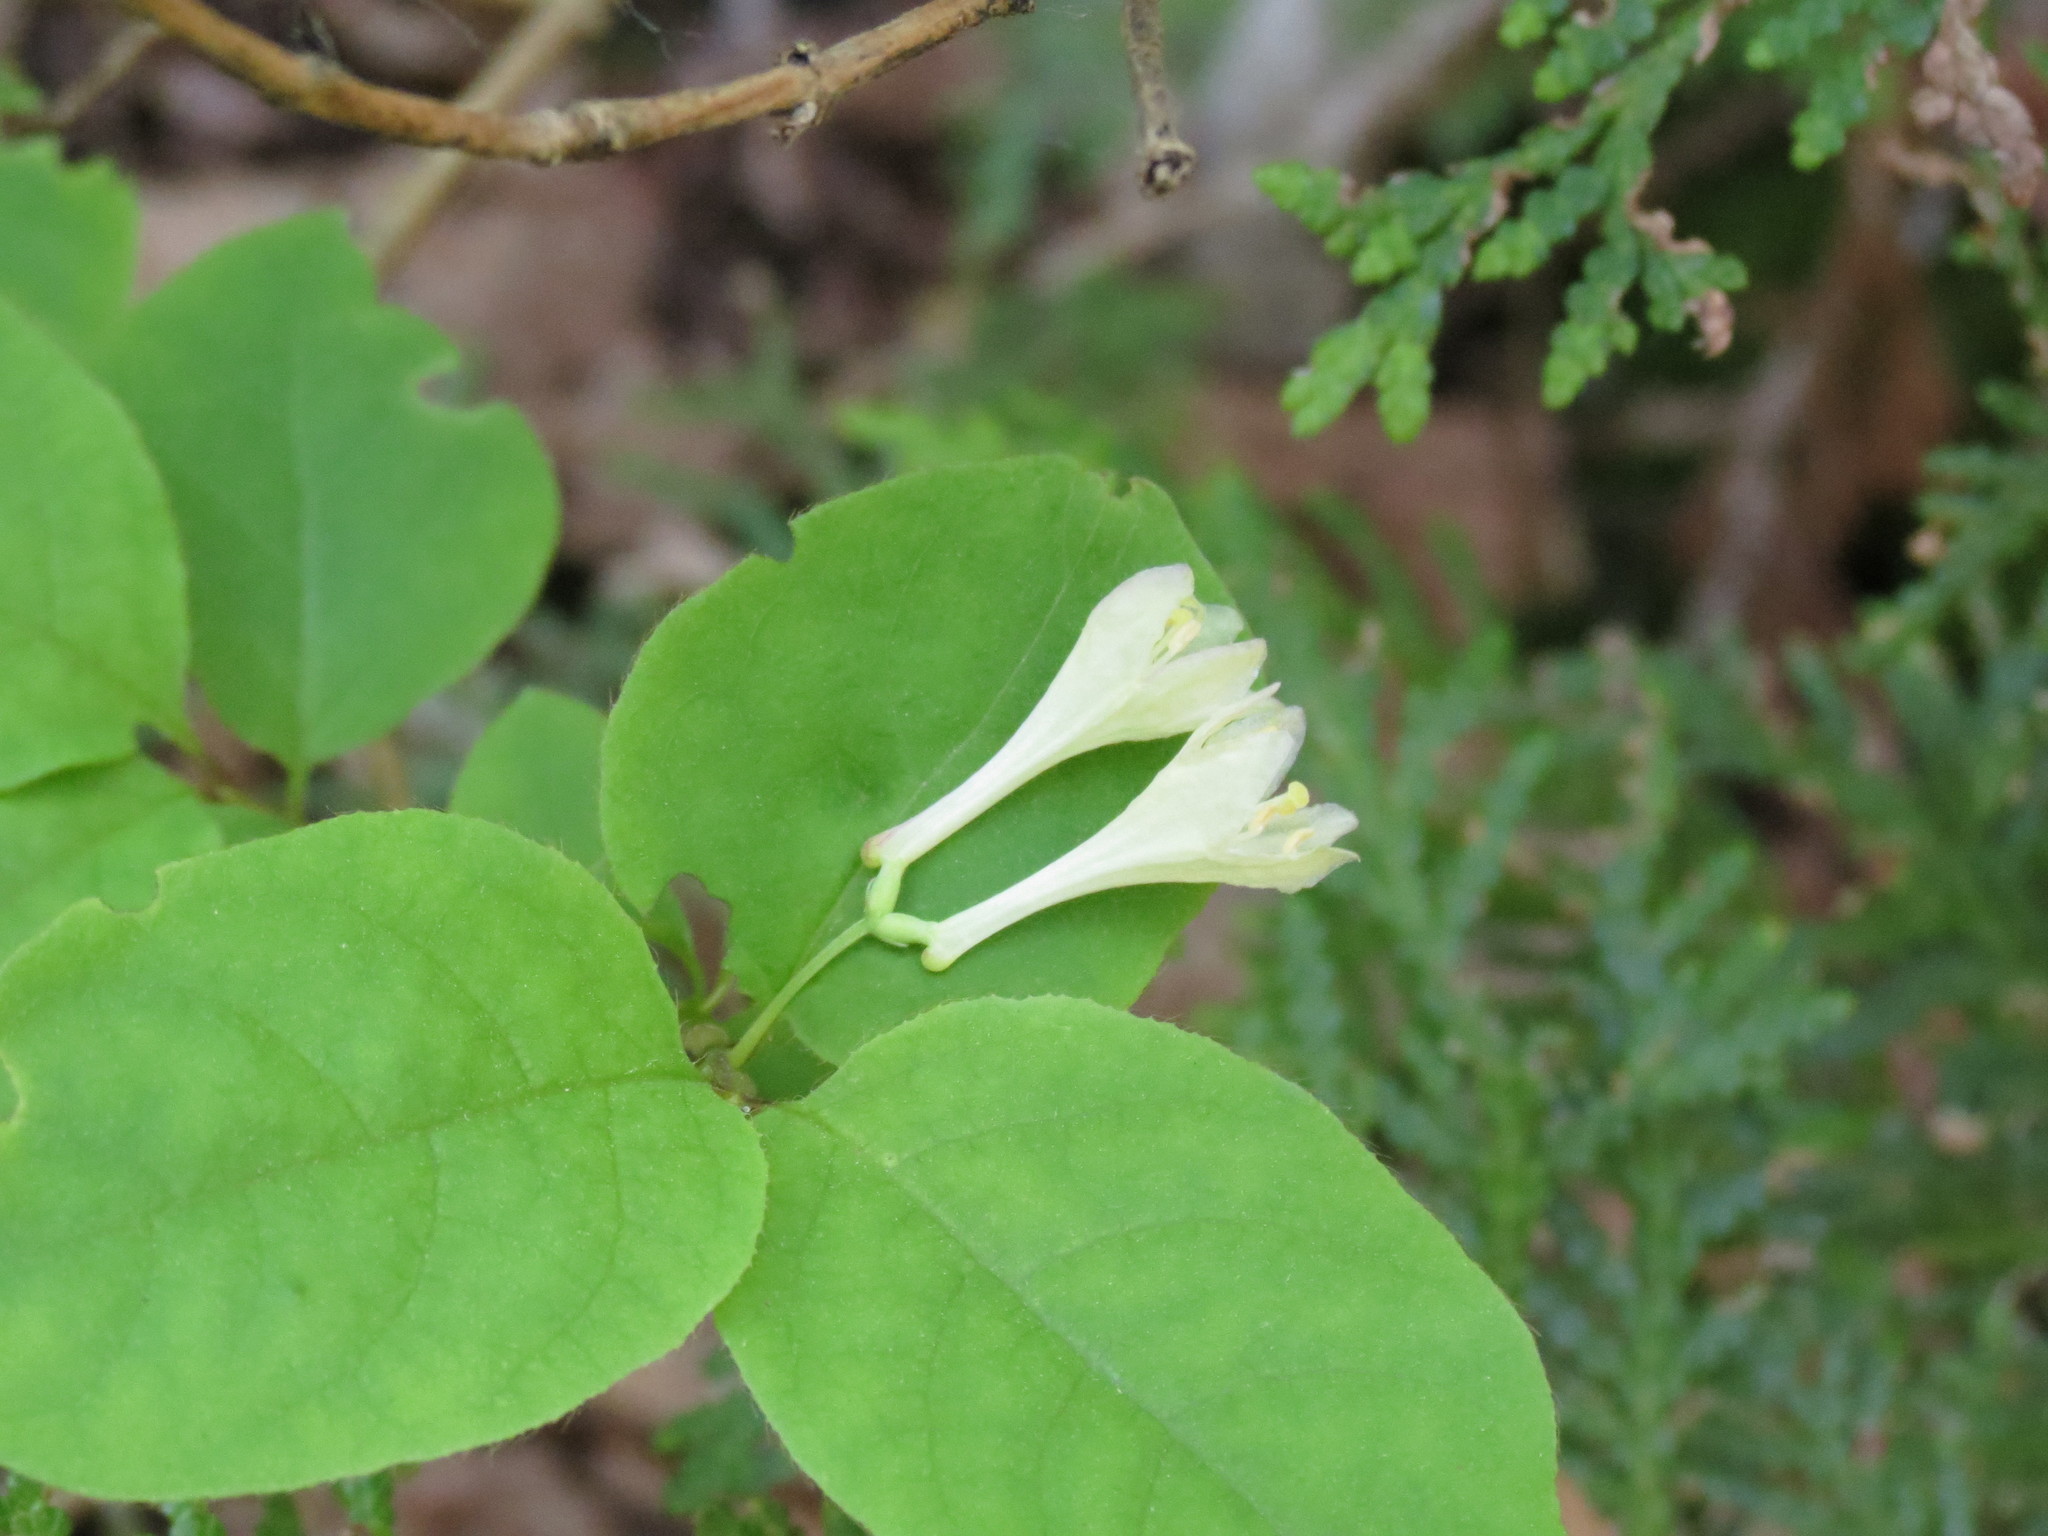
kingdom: Plantae
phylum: Tracheophyta
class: Magnoliopsida
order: Dipsacales
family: Caprifoliaceae
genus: Lonicera
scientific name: Lonicera canadensis
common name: American fly-honeysuckle
